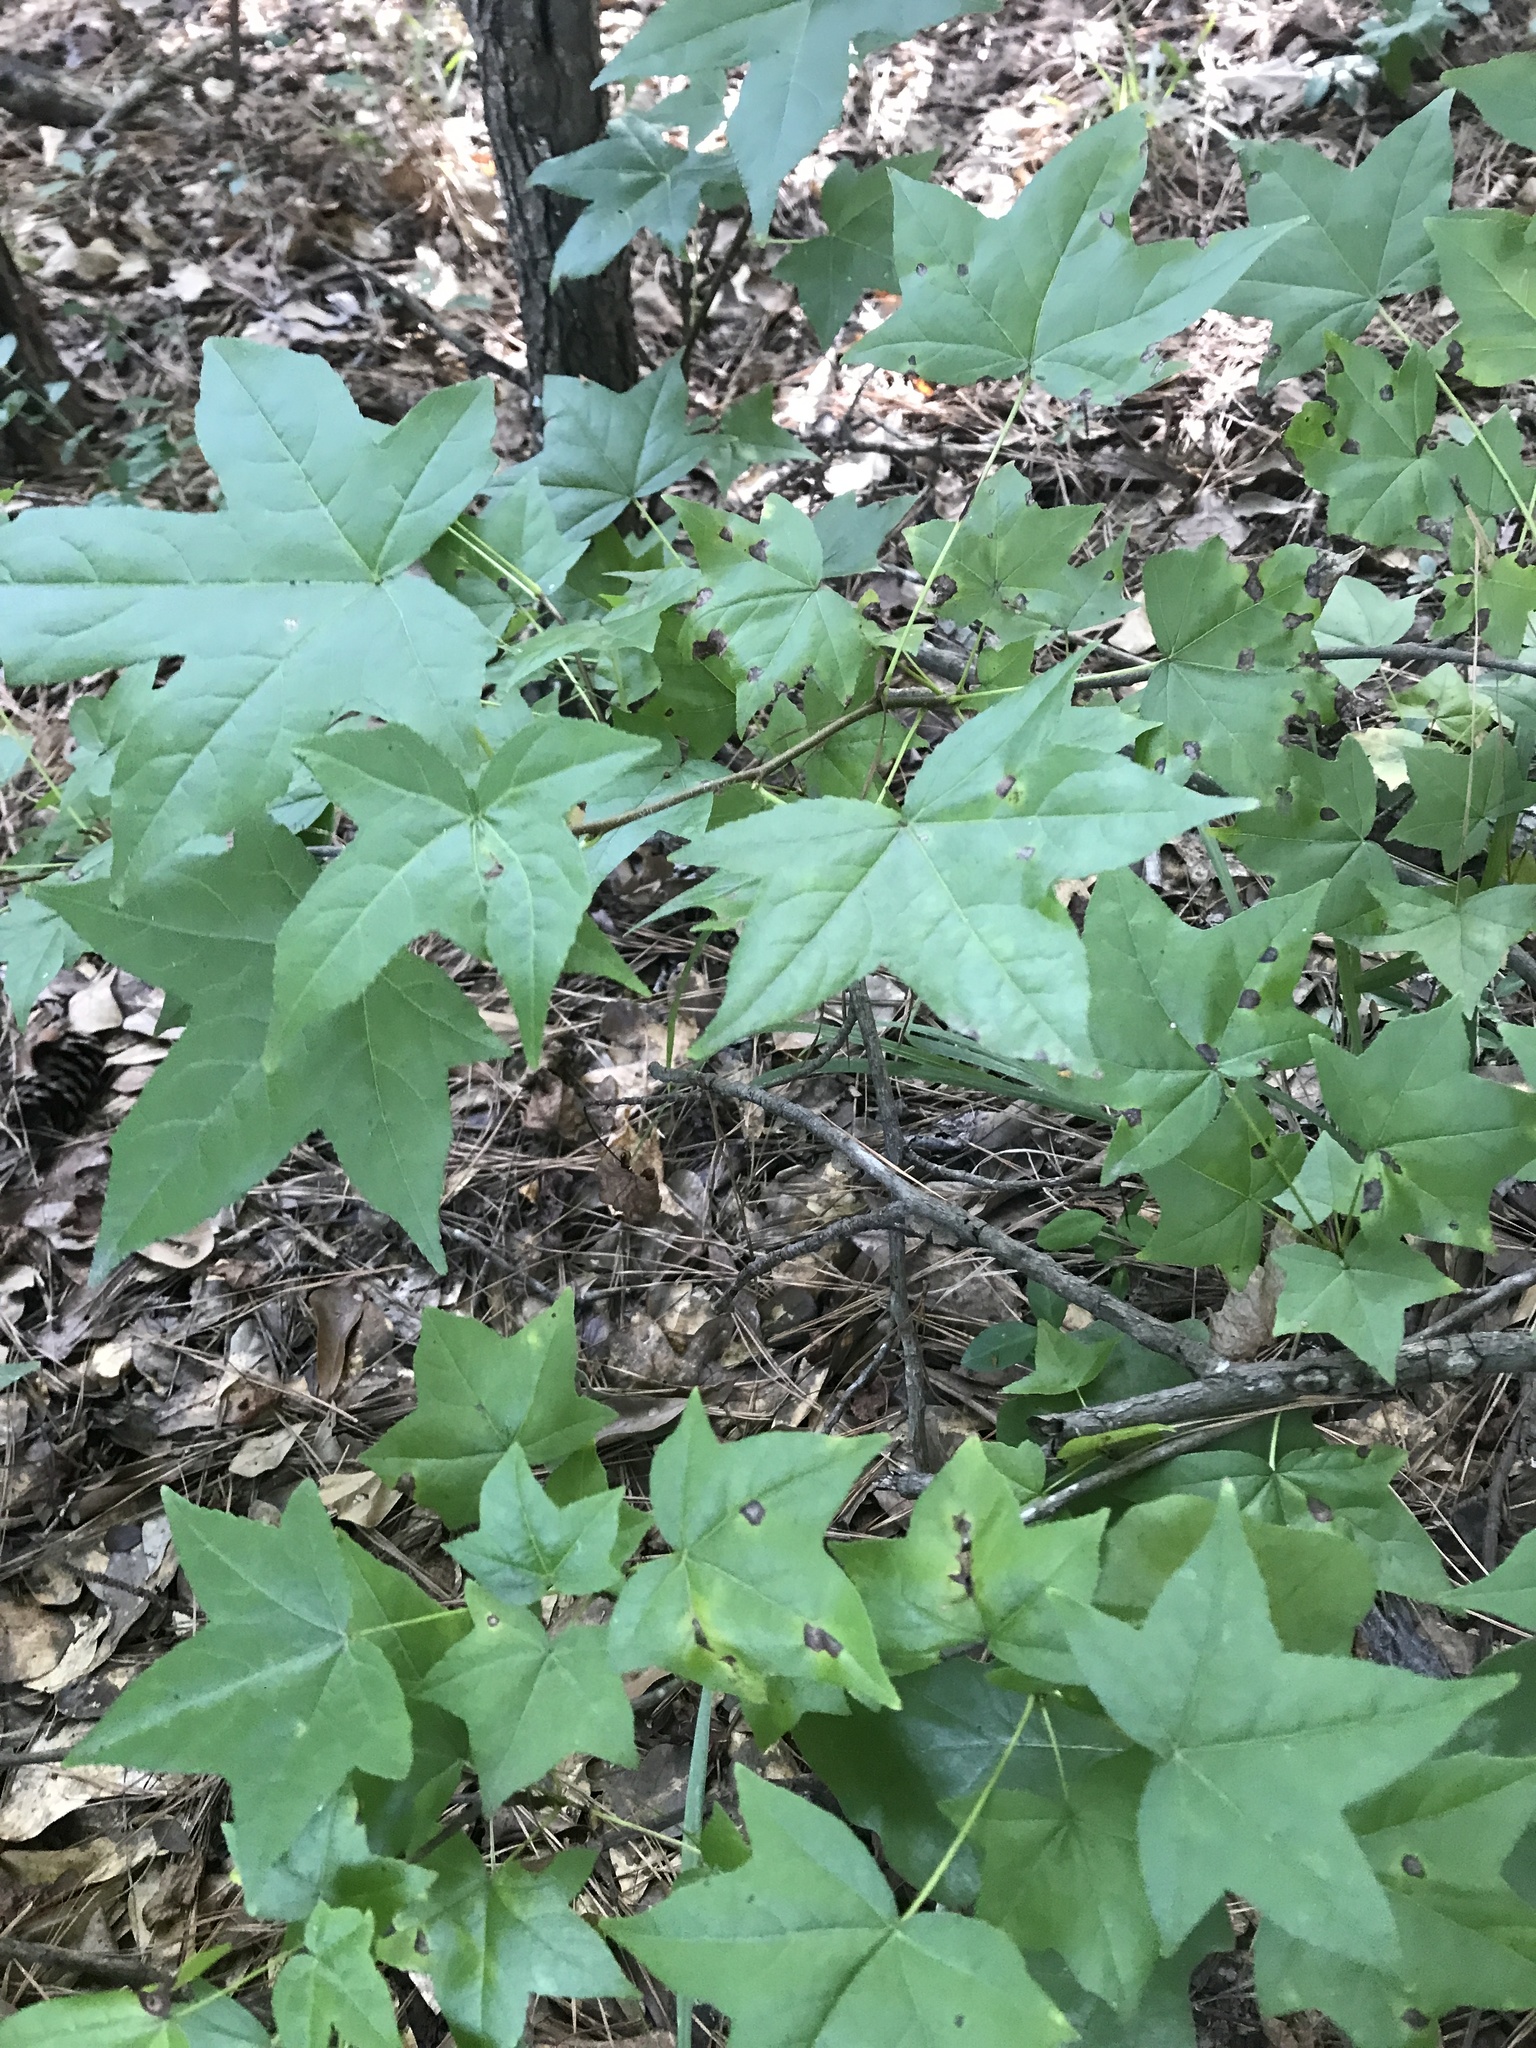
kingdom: Plantae
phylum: Tracheophyta
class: Magnoliopsida
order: Saxifragales
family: Altingiaceae
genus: Liquidambar
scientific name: Liquidambar styraciflua
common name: Sweet gum
